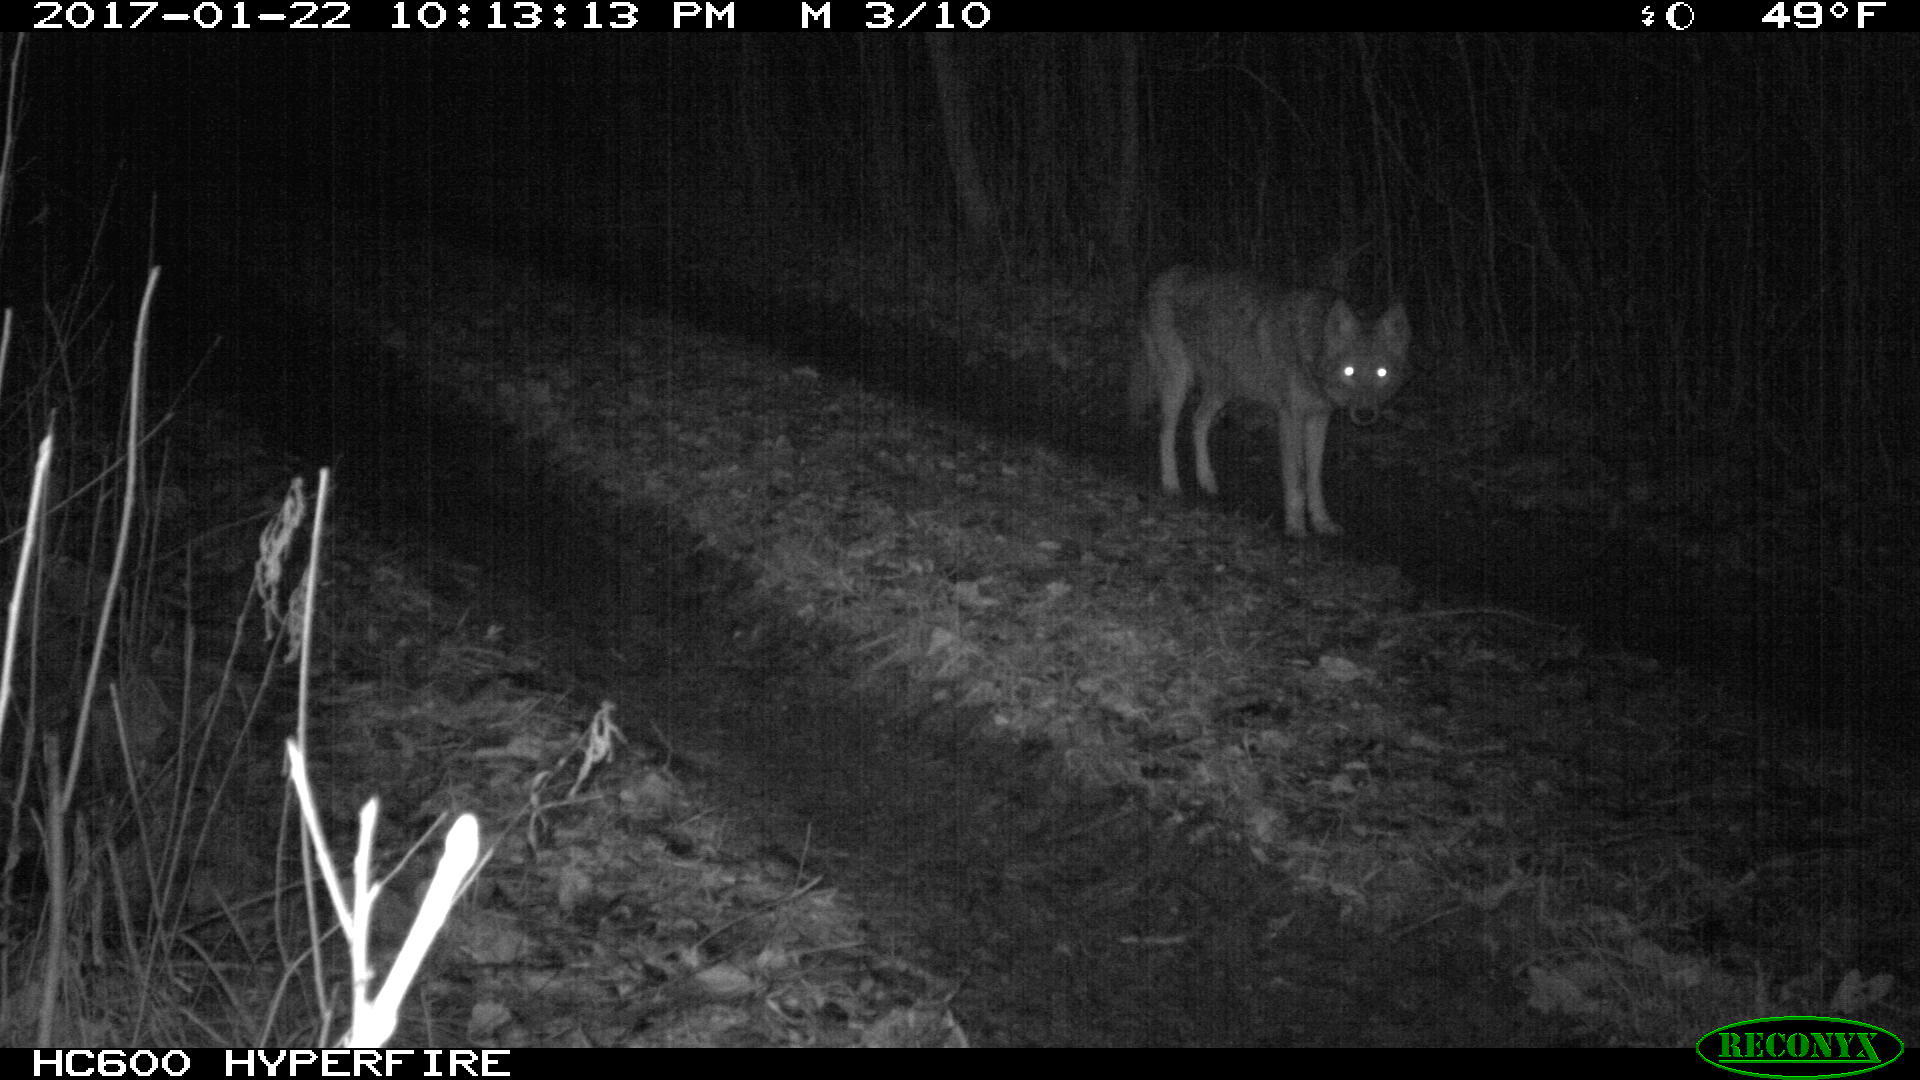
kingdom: Animalia
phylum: Chordata
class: Mammalia
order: Carnivora
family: Canidae
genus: Canis
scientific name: Canis latrans
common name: Coyote
